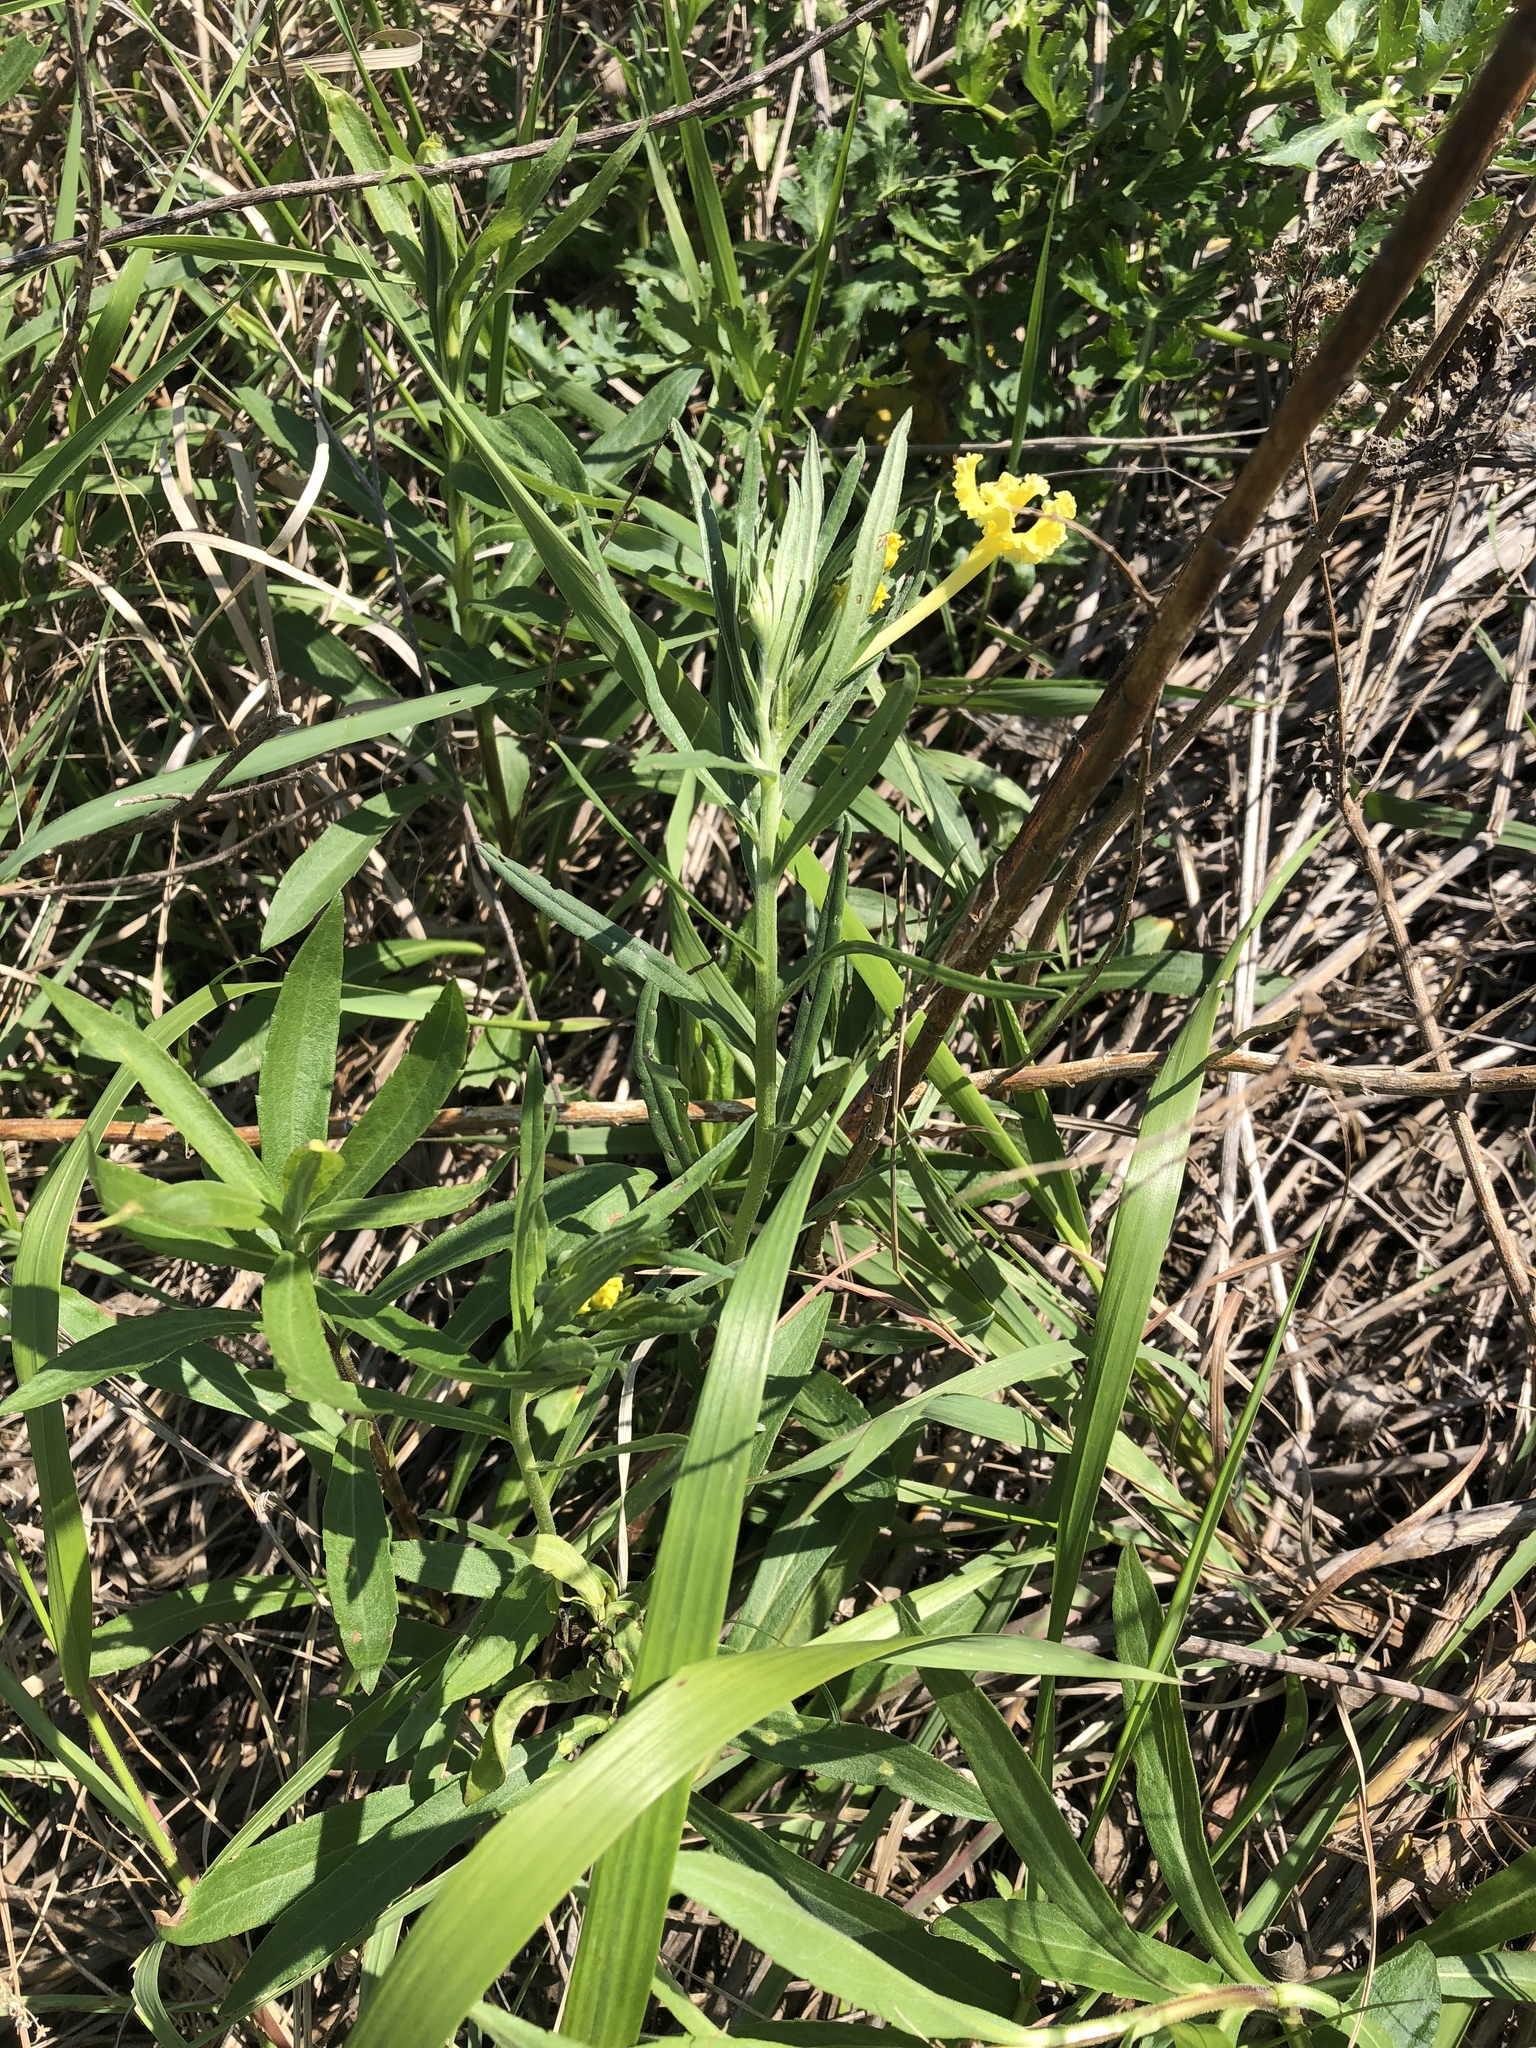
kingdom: Plantae
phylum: Tracheophyta
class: Magnoliopsida
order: Boraginales
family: Boraginaceae
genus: Lithospermum
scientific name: Lithospermum incisum
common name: Fringed gromwell
